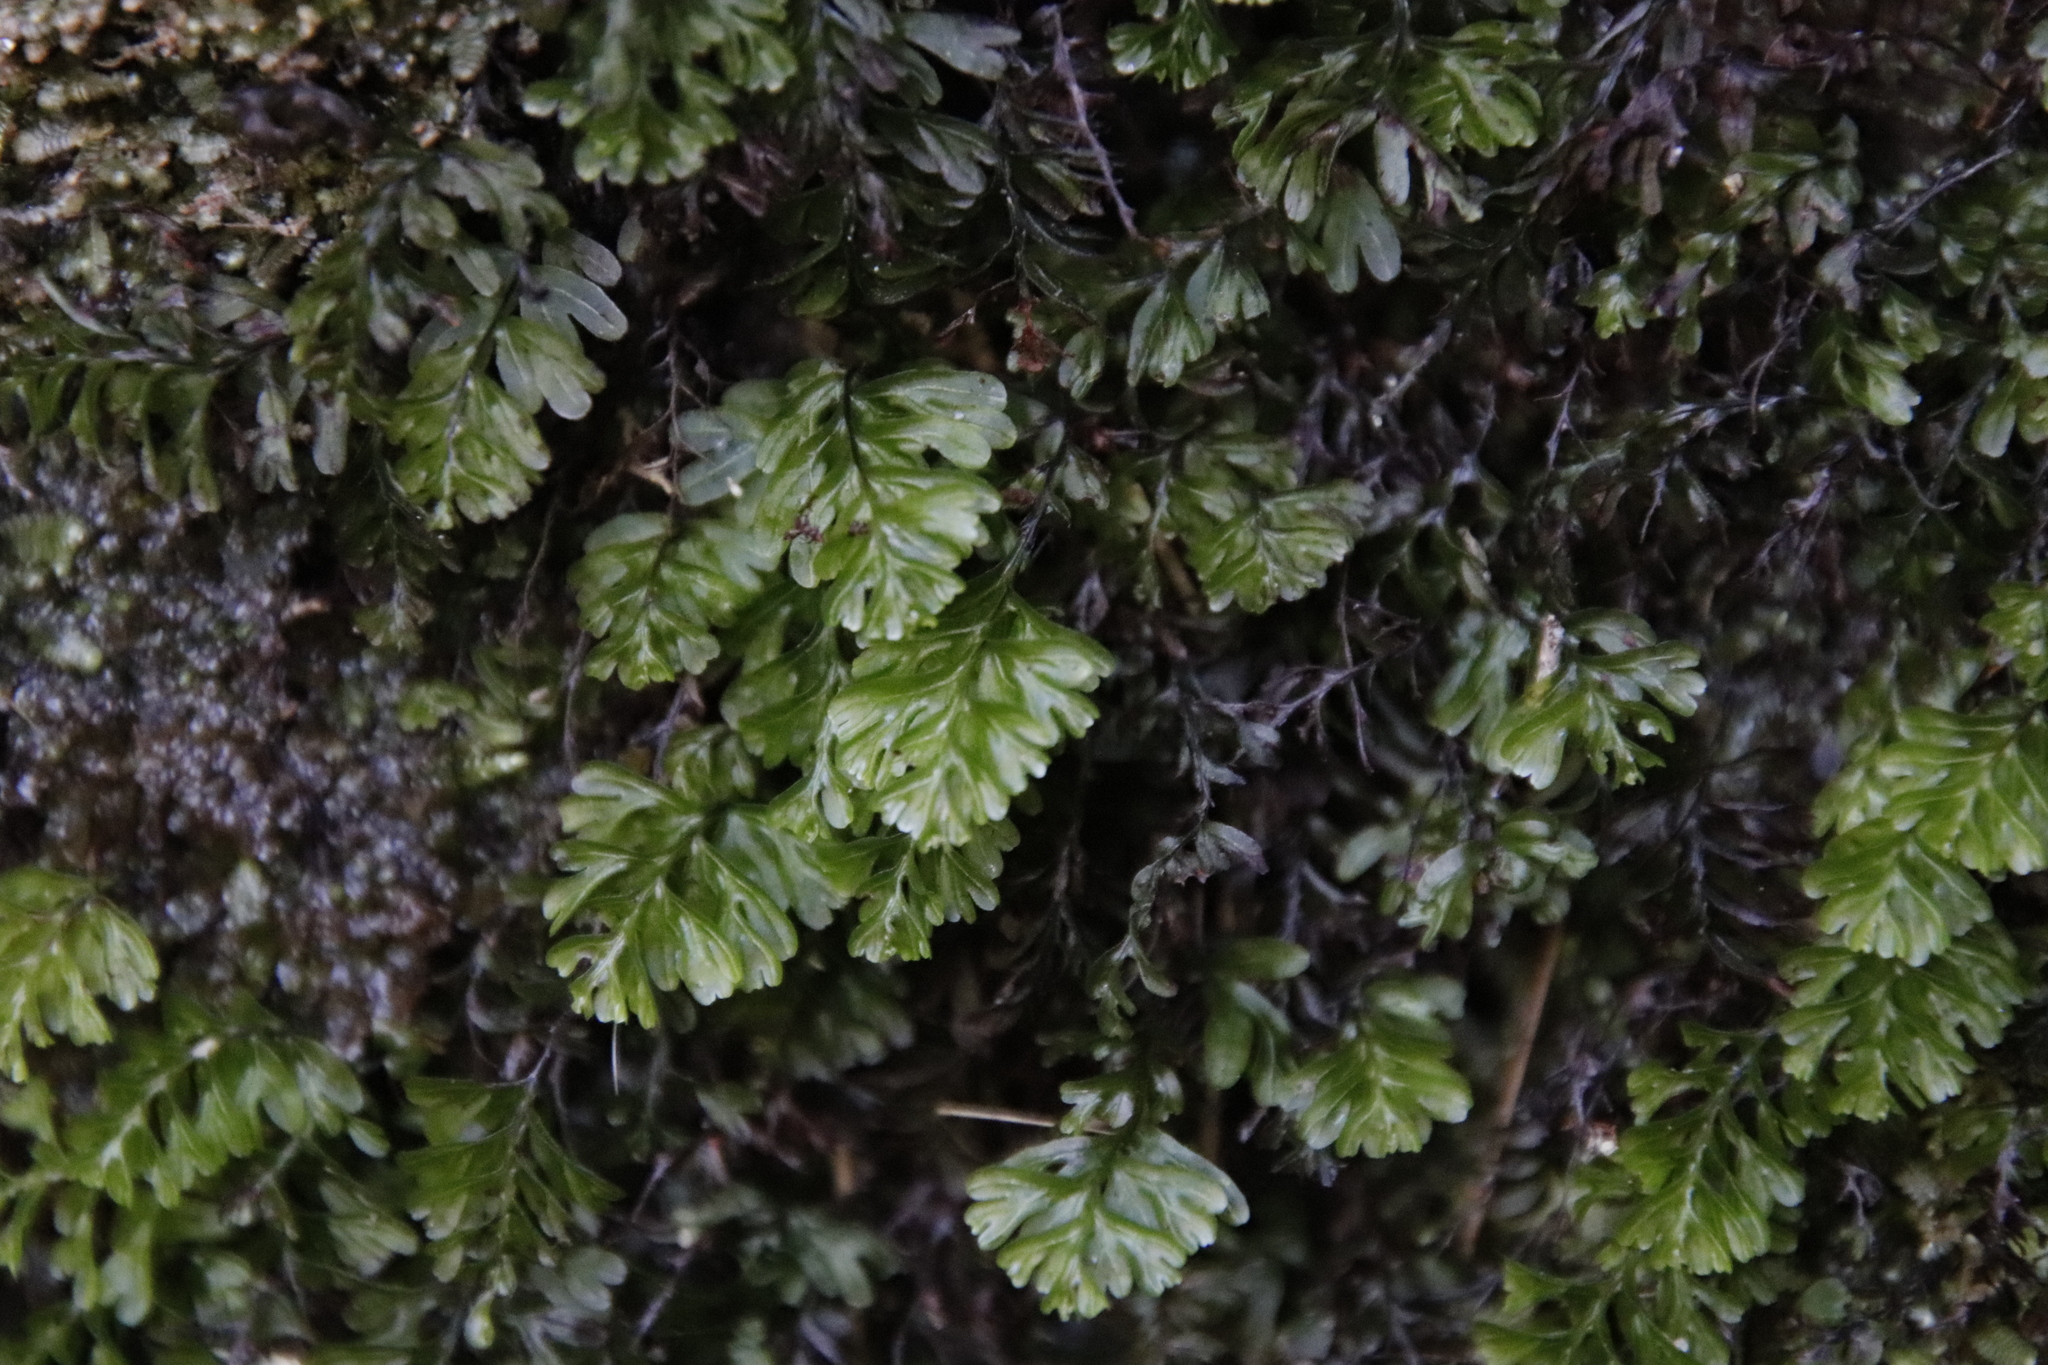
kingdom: Plantae
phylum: Tracheophyta
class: Polypodiopsida
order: Hymenophyllales
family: Hymenophyllaceae
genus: Hymenophyllum
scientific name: Hymenophyllum capense
